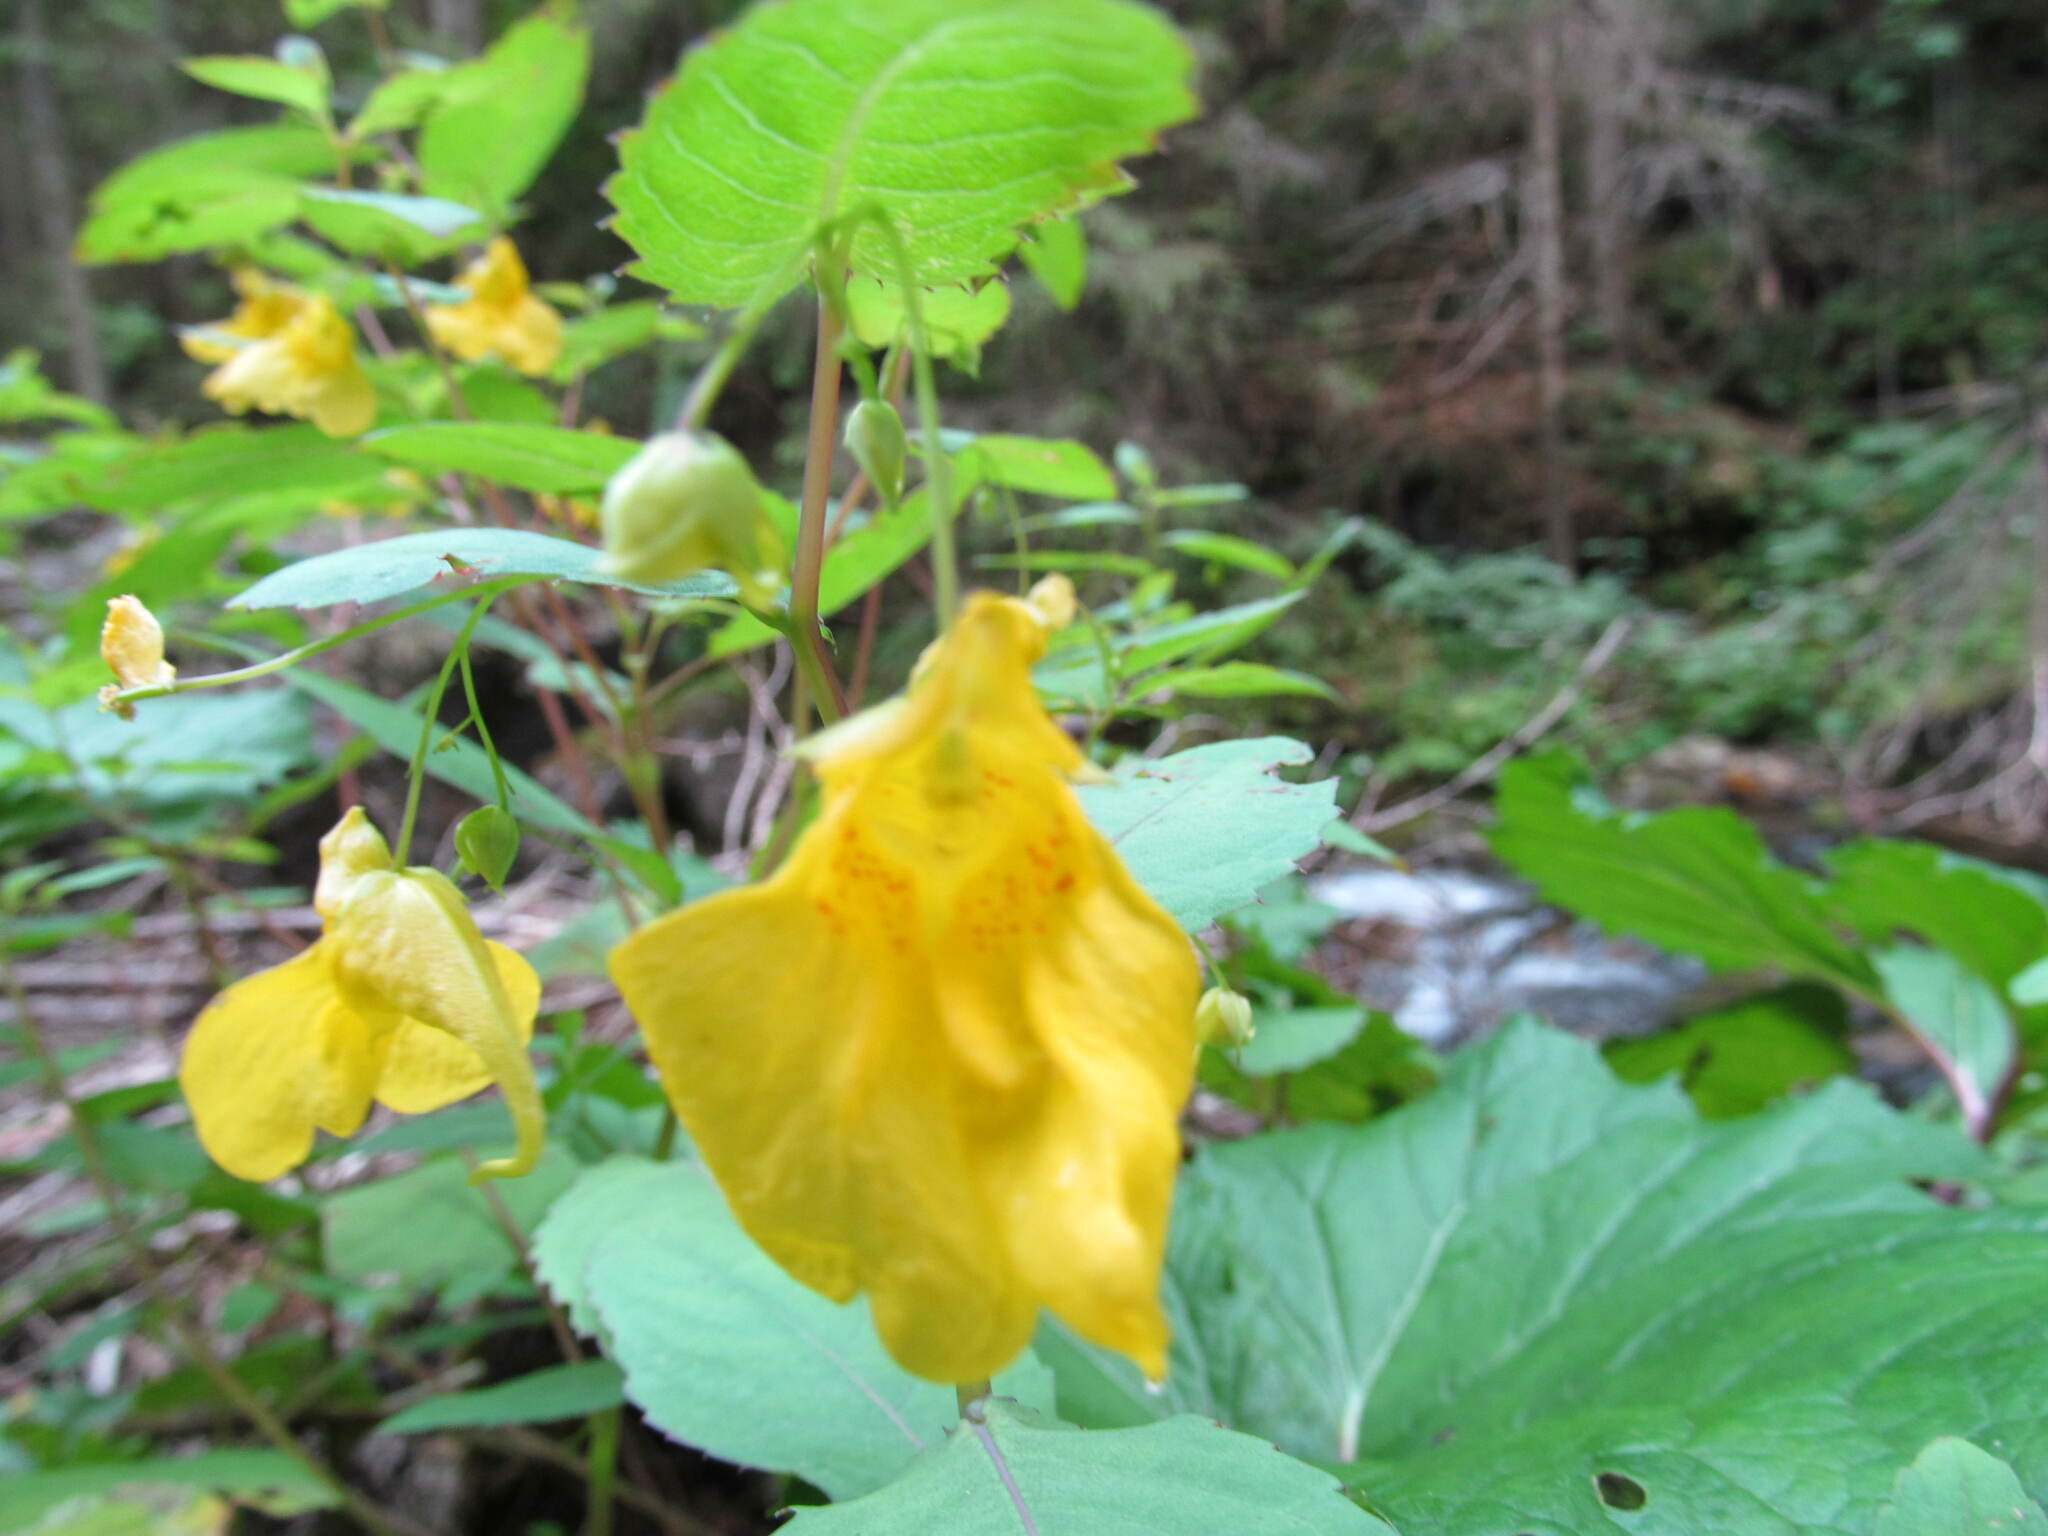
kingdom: Plantae
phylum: Tracheophyta
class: Magnoliopsida
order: Ericales
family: Balsaminaceae
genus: Impatiens
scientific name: Impatiens noli-tangere
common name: Touch-me-not balsam
